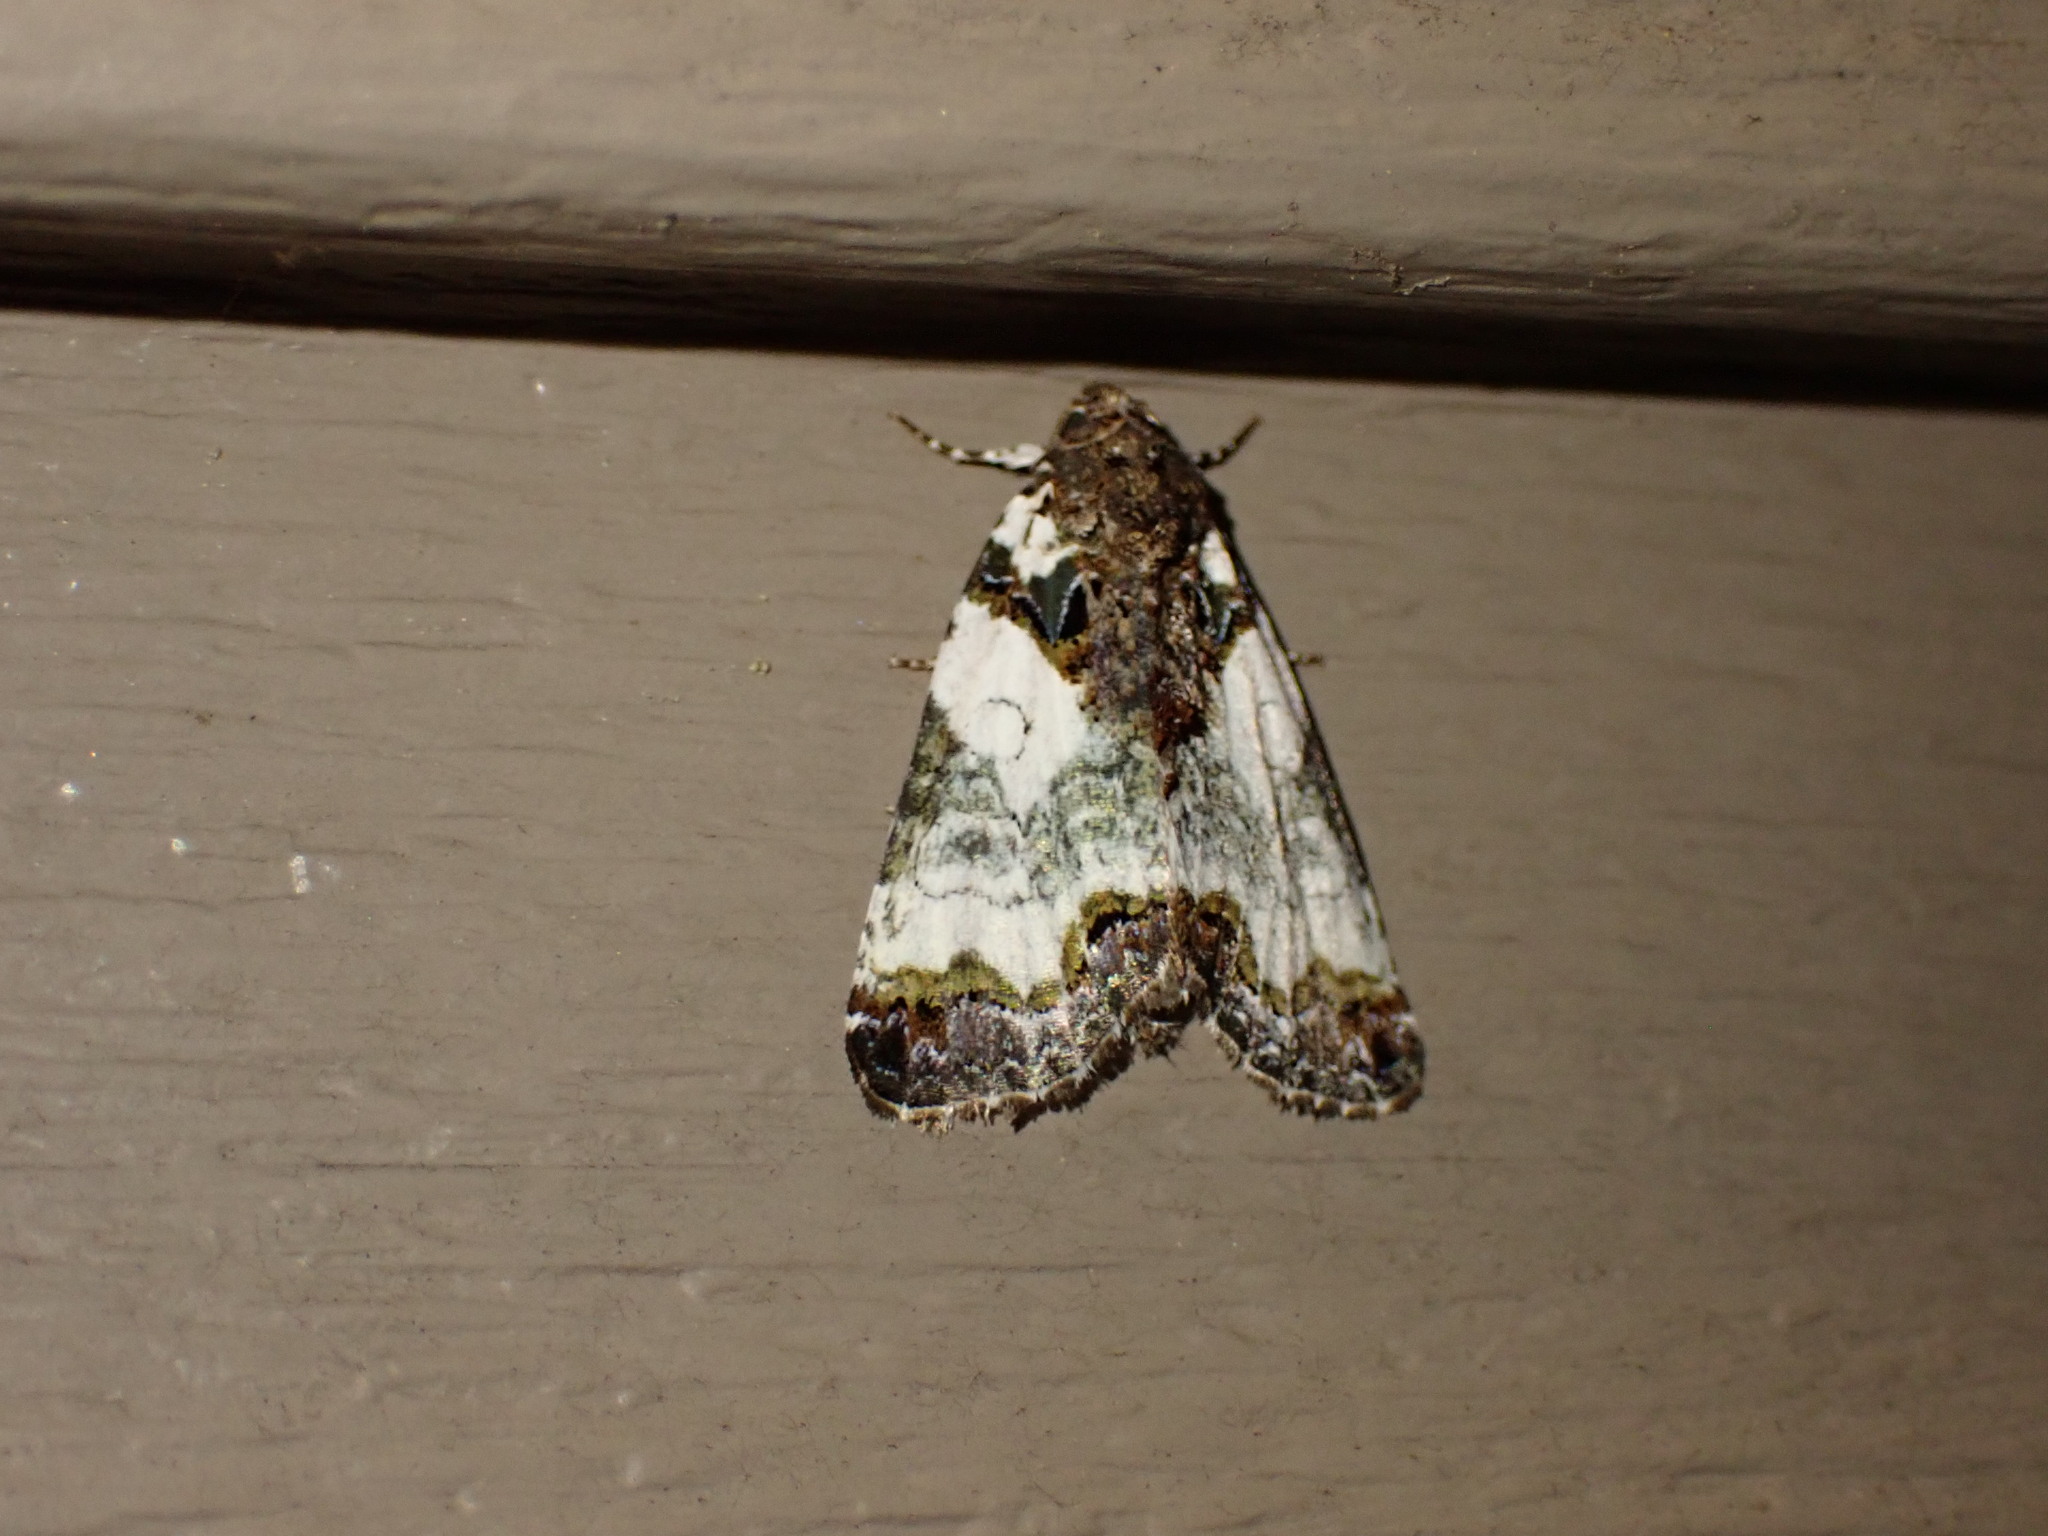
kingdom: Animalia
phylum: Arthropoda
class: Insecta
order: Lepidoptera
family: Noctuidae
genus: Cerma
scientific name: Cerma cerintha
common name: Tufted bird-dropping moth
